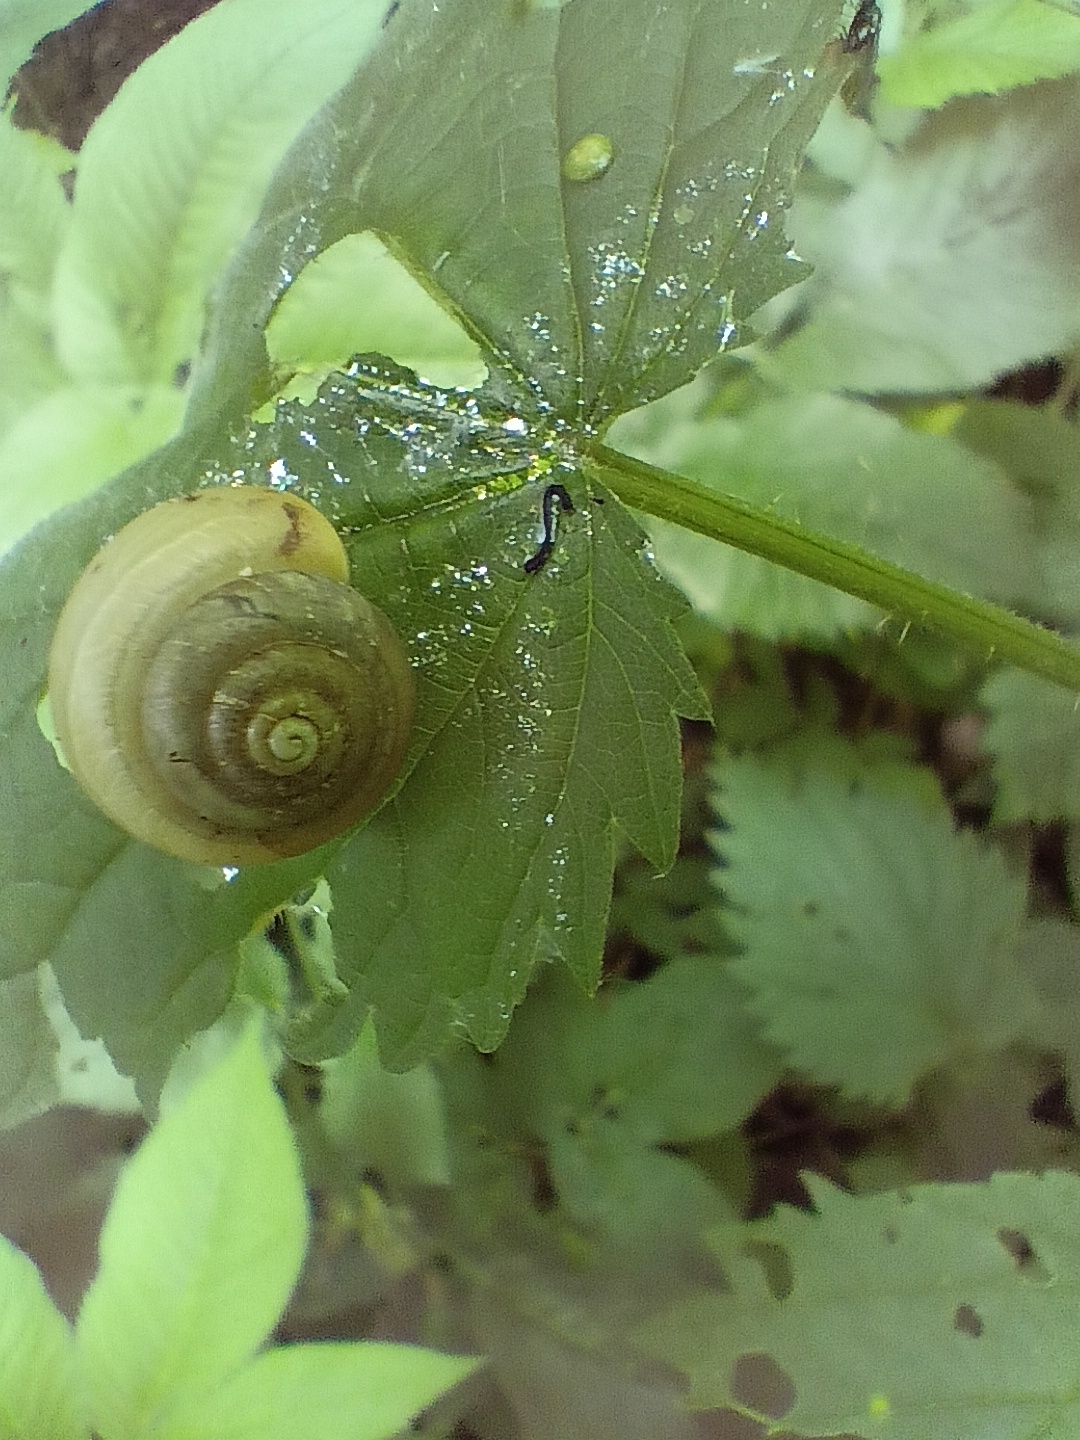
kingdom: Animalia
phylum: Mollusca
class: Gastropoda
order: Stylommatophora
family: Camaenidae
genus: Fruticicola
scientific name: Fruticicola fruticum
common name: Bush snail
